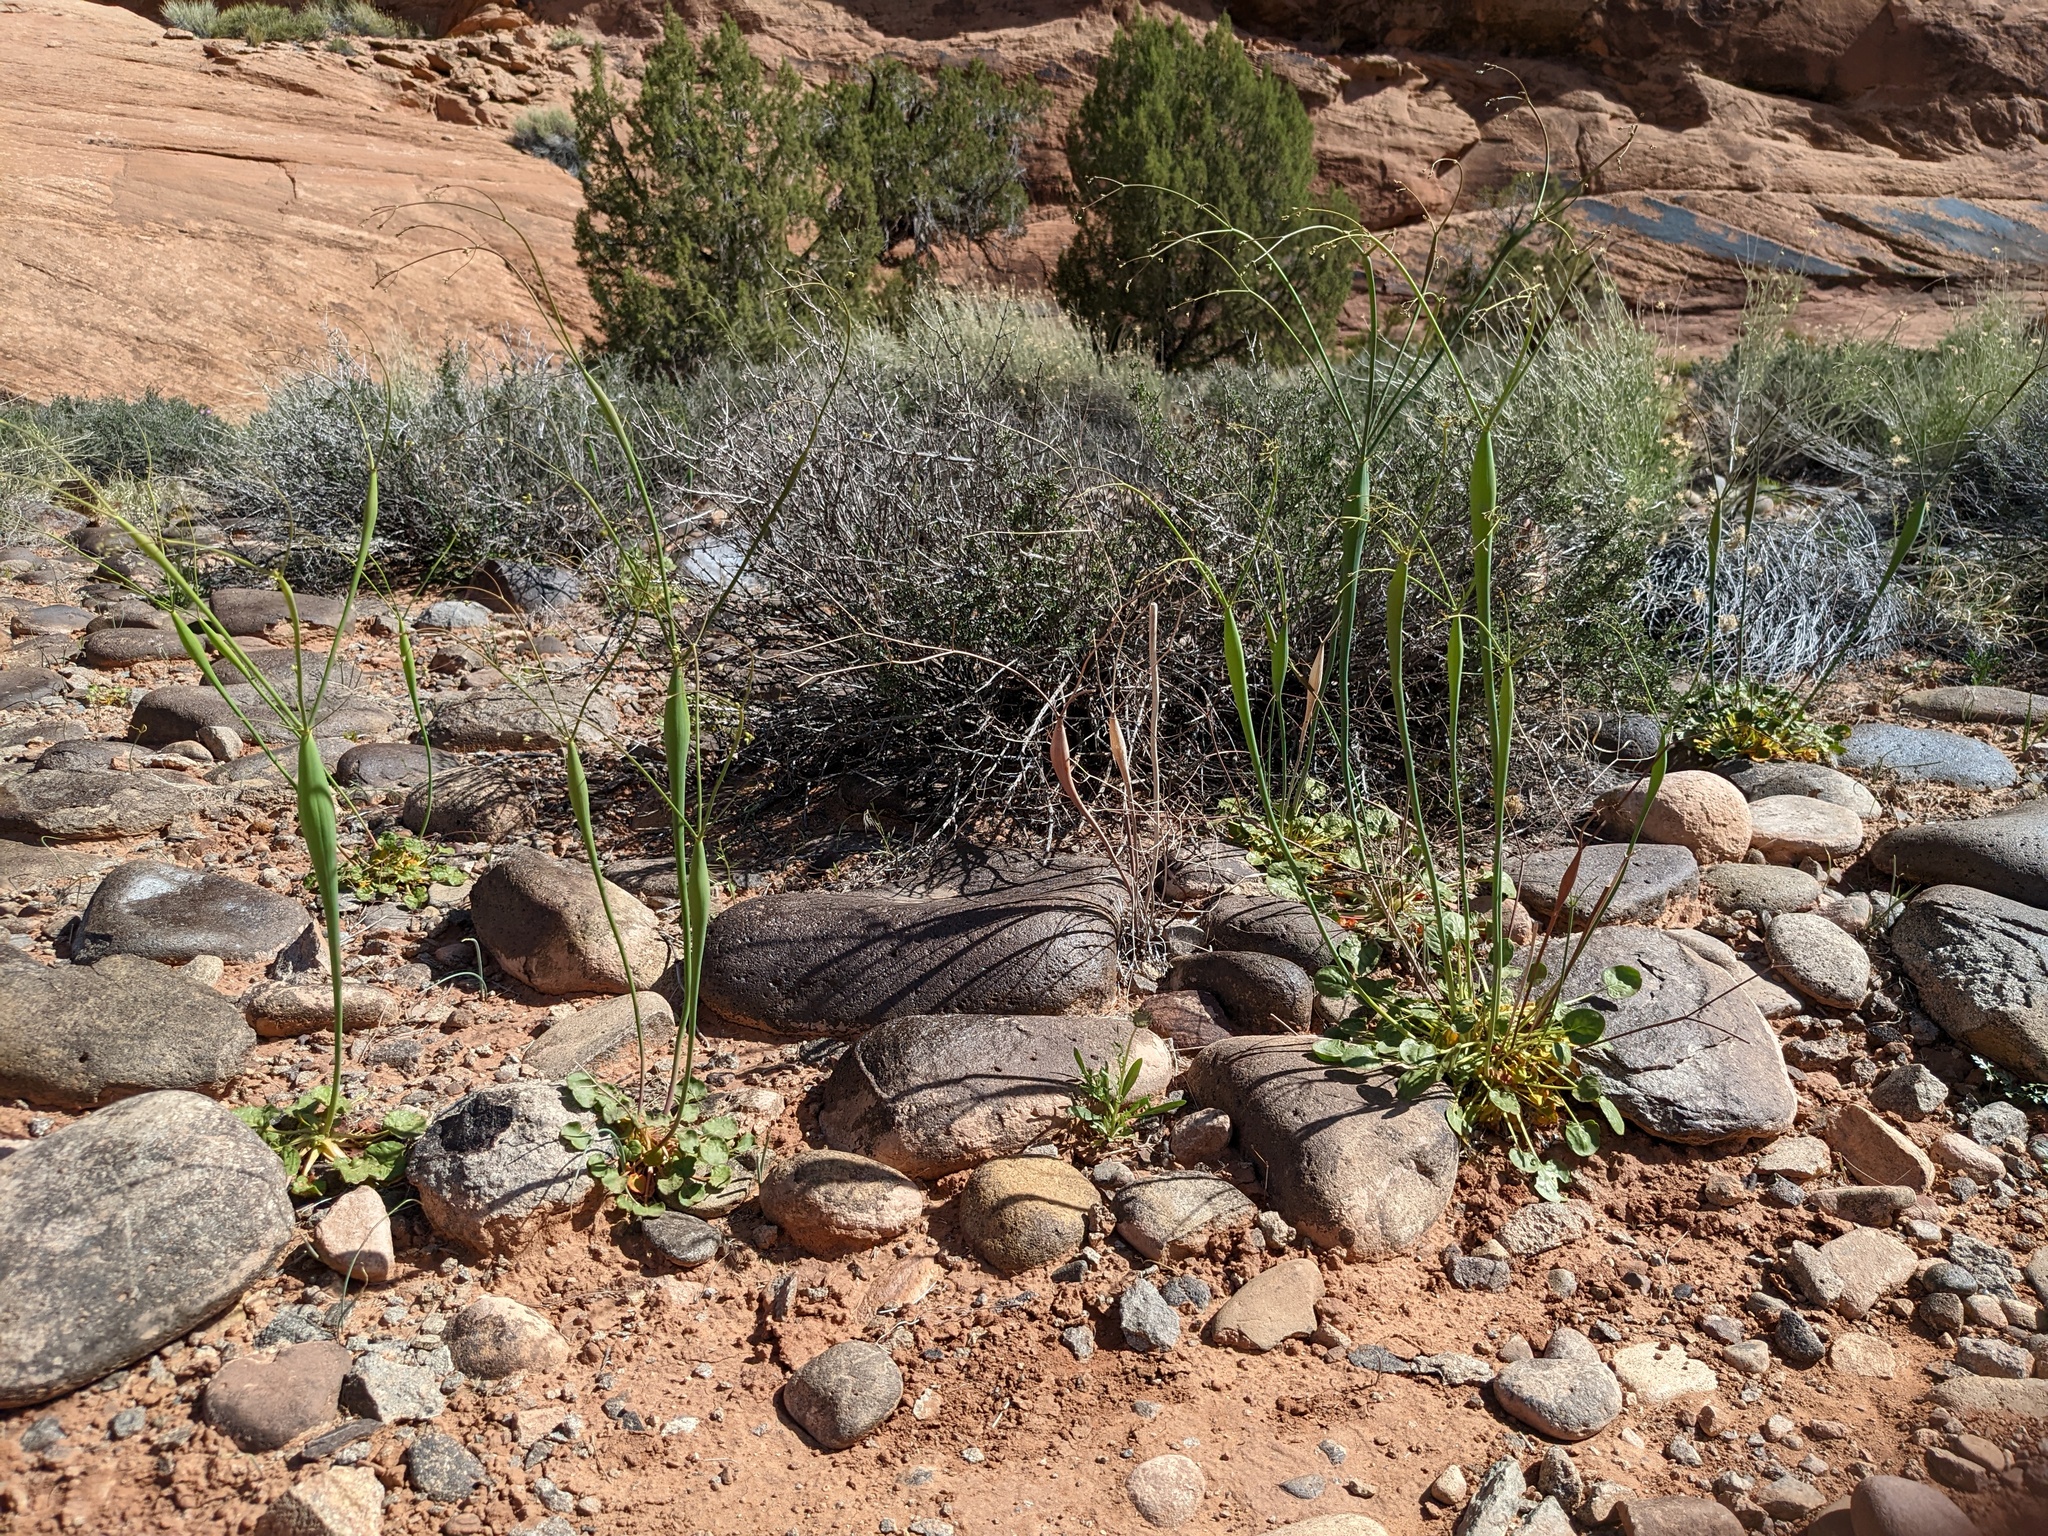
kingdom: Plantae
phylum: Tracheophyta
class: Magnoliopsida
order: Caryophyllales
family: Polygonaceae
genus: Eriogonum
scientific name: Eriogonum inflatum
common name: Desert trumpet
